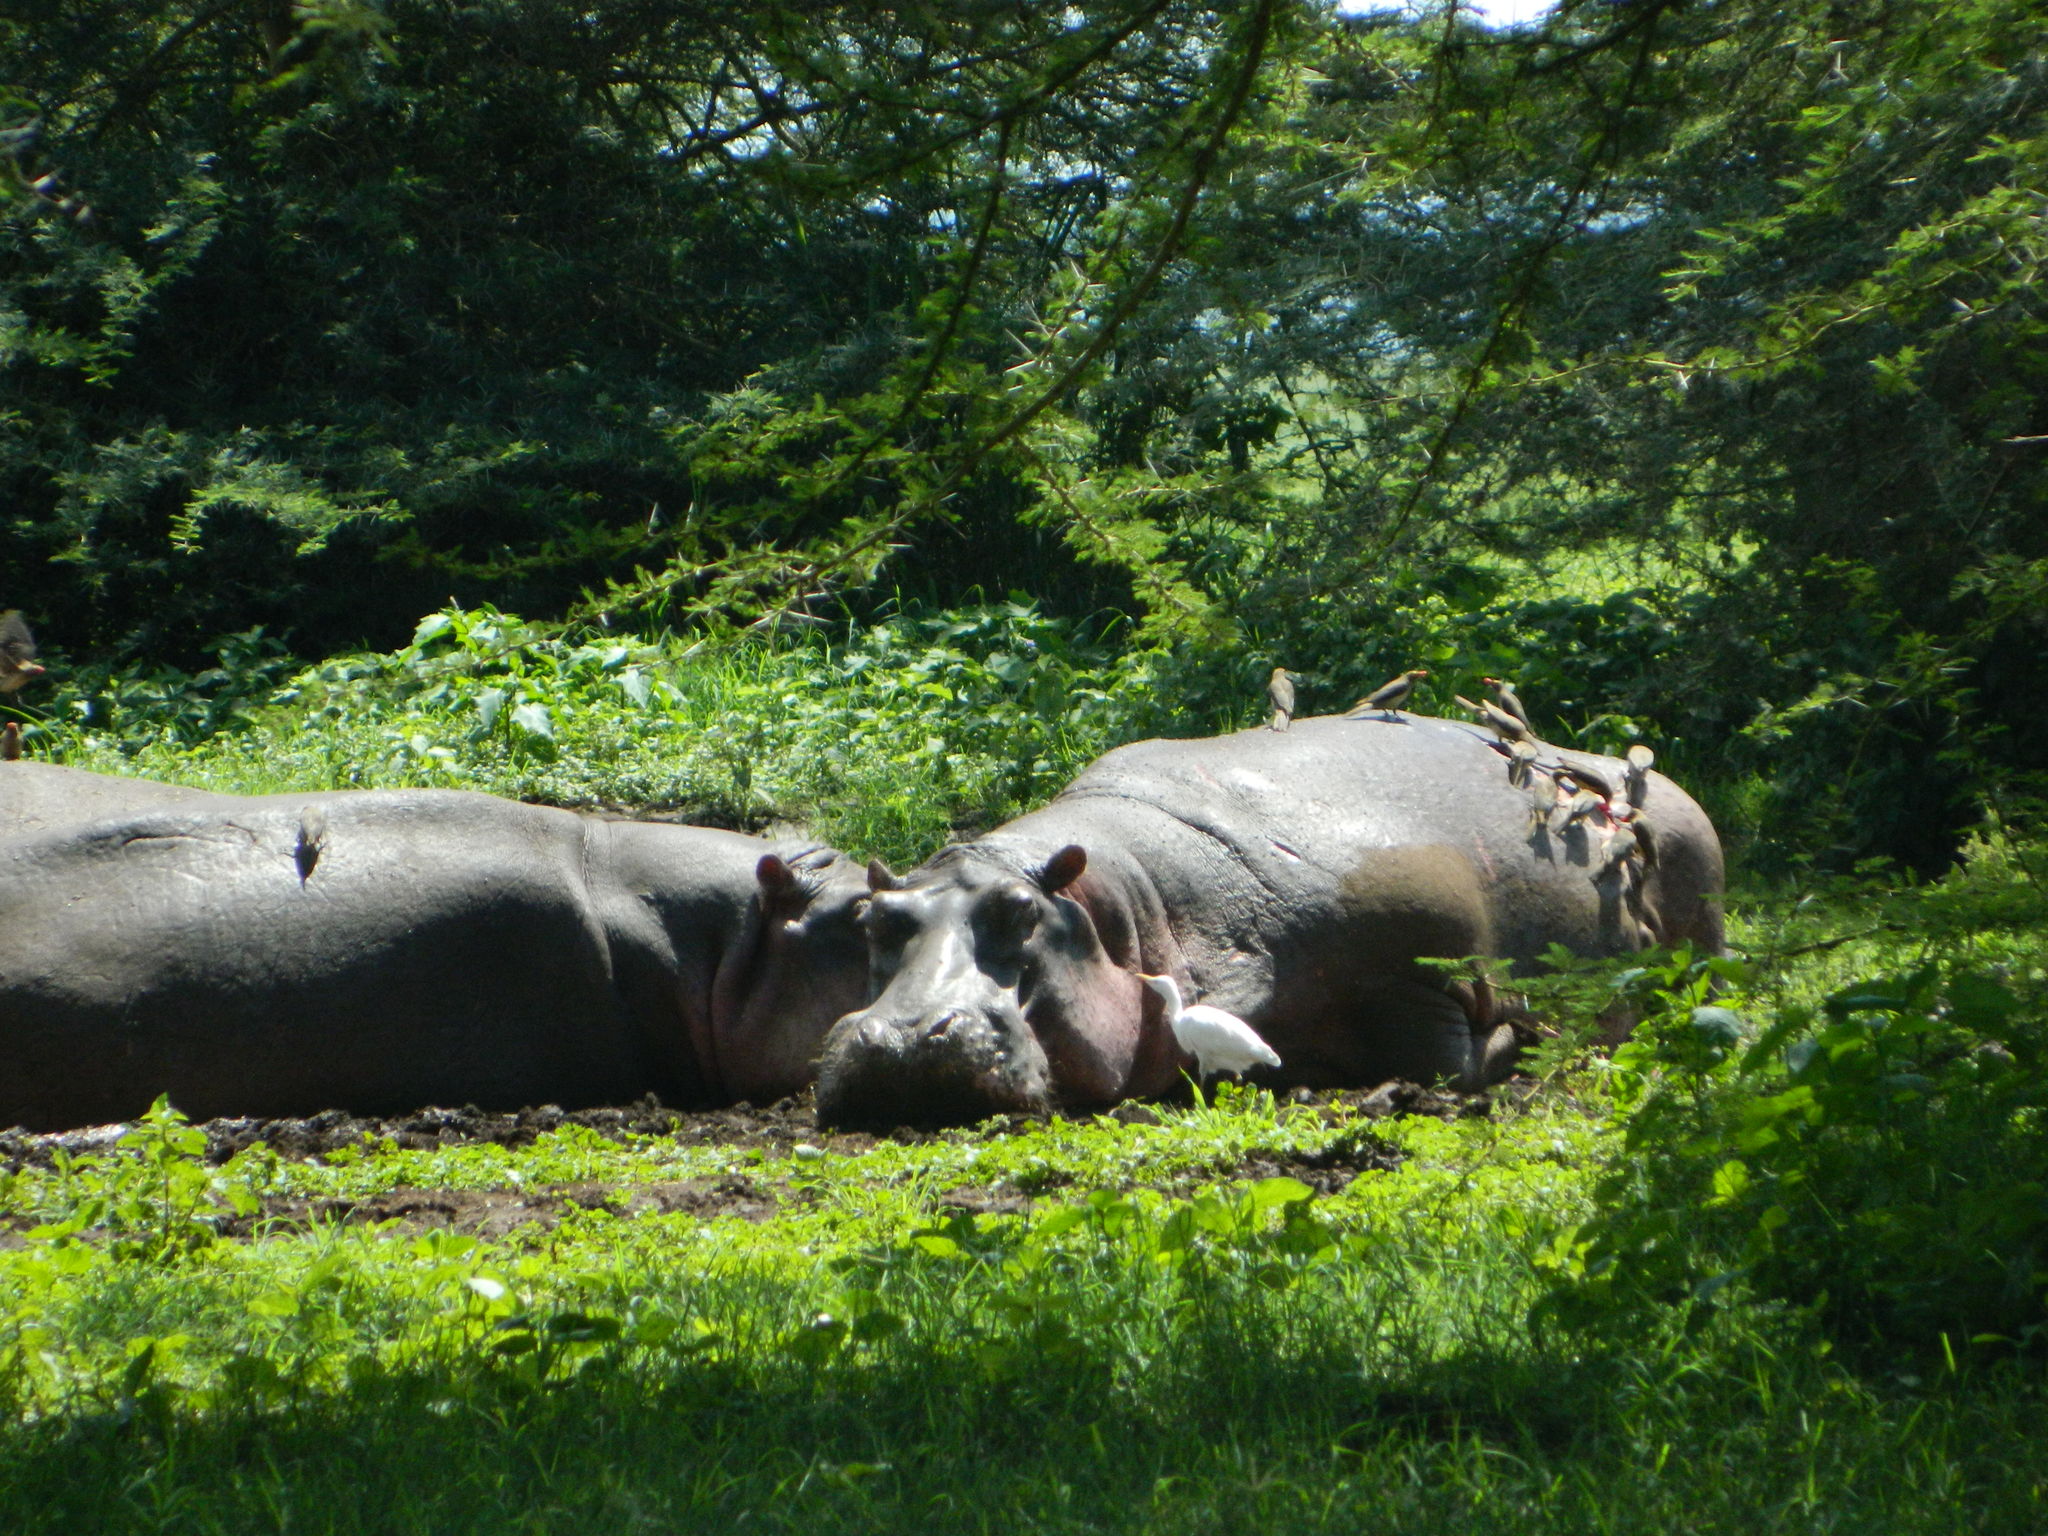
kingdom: Animalia
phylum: Chordata
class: Mammalia
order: Artiodactyla
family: Hippopotamidae
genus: Hippopotamus
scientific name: Hippopotamus amphibius
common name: Common hippopotamus
